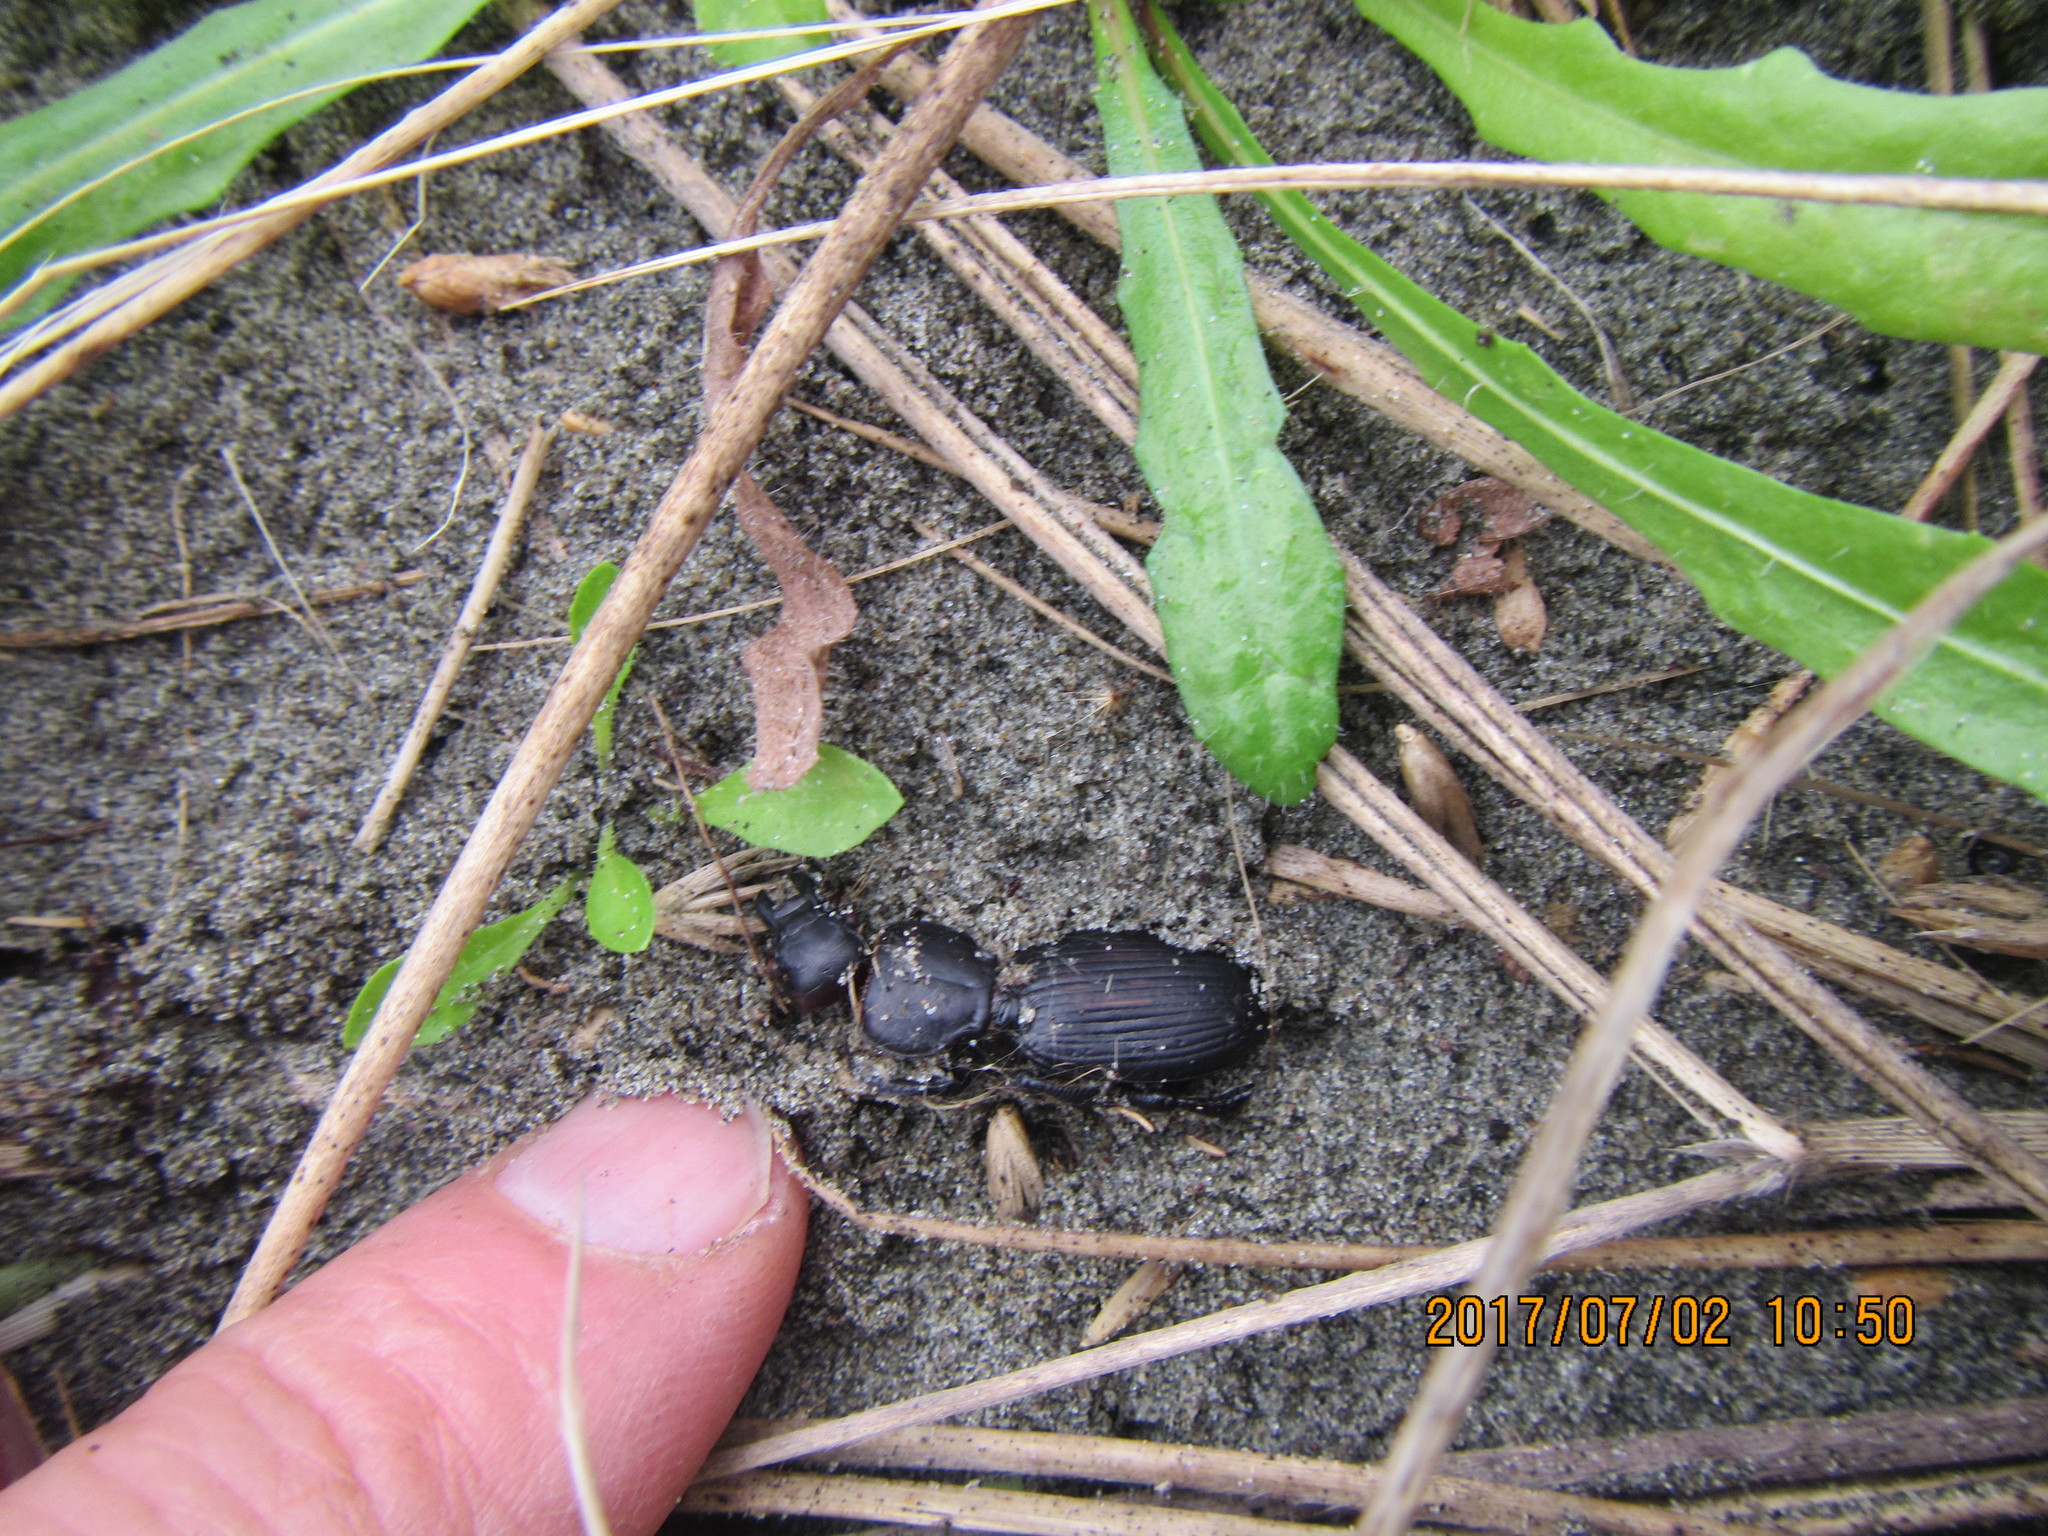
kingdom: Animalia
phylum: Arthropoda
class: Insecta
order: Coleoptera
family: Carabidae
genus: Mecodema
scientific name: Mecodema antarcticum
